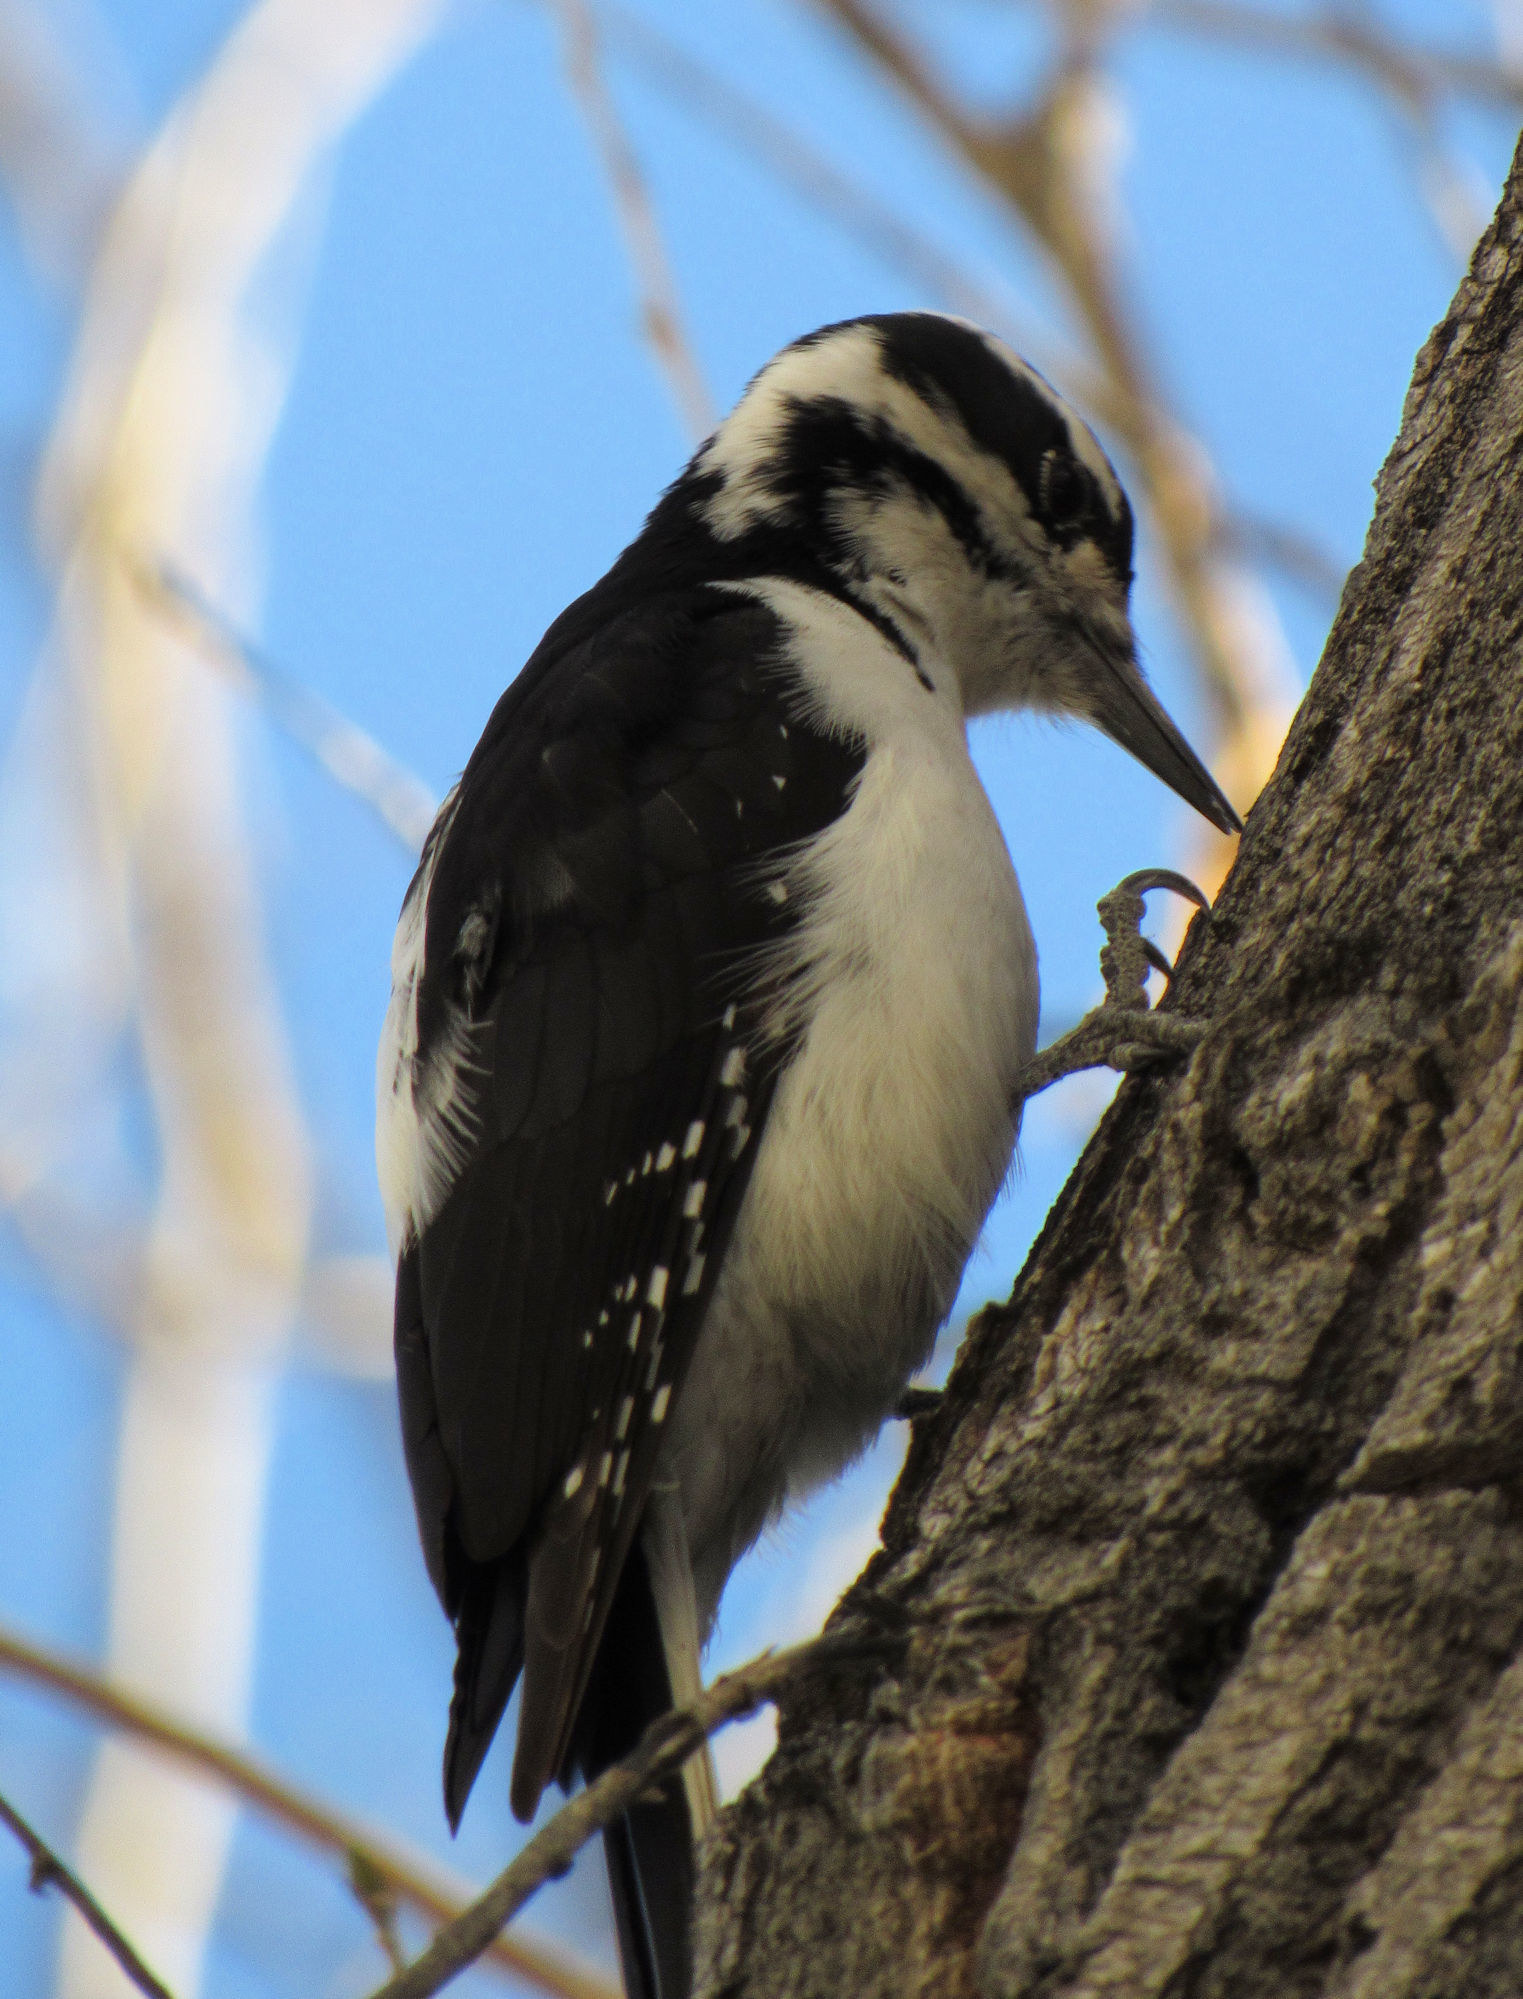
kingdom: Animalia
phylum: Chordata
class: Aves
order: Piciformes
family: Picidae
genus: Leuconotopicus
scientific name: Leuconotopicus villosus
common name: Hairy woodpecker
